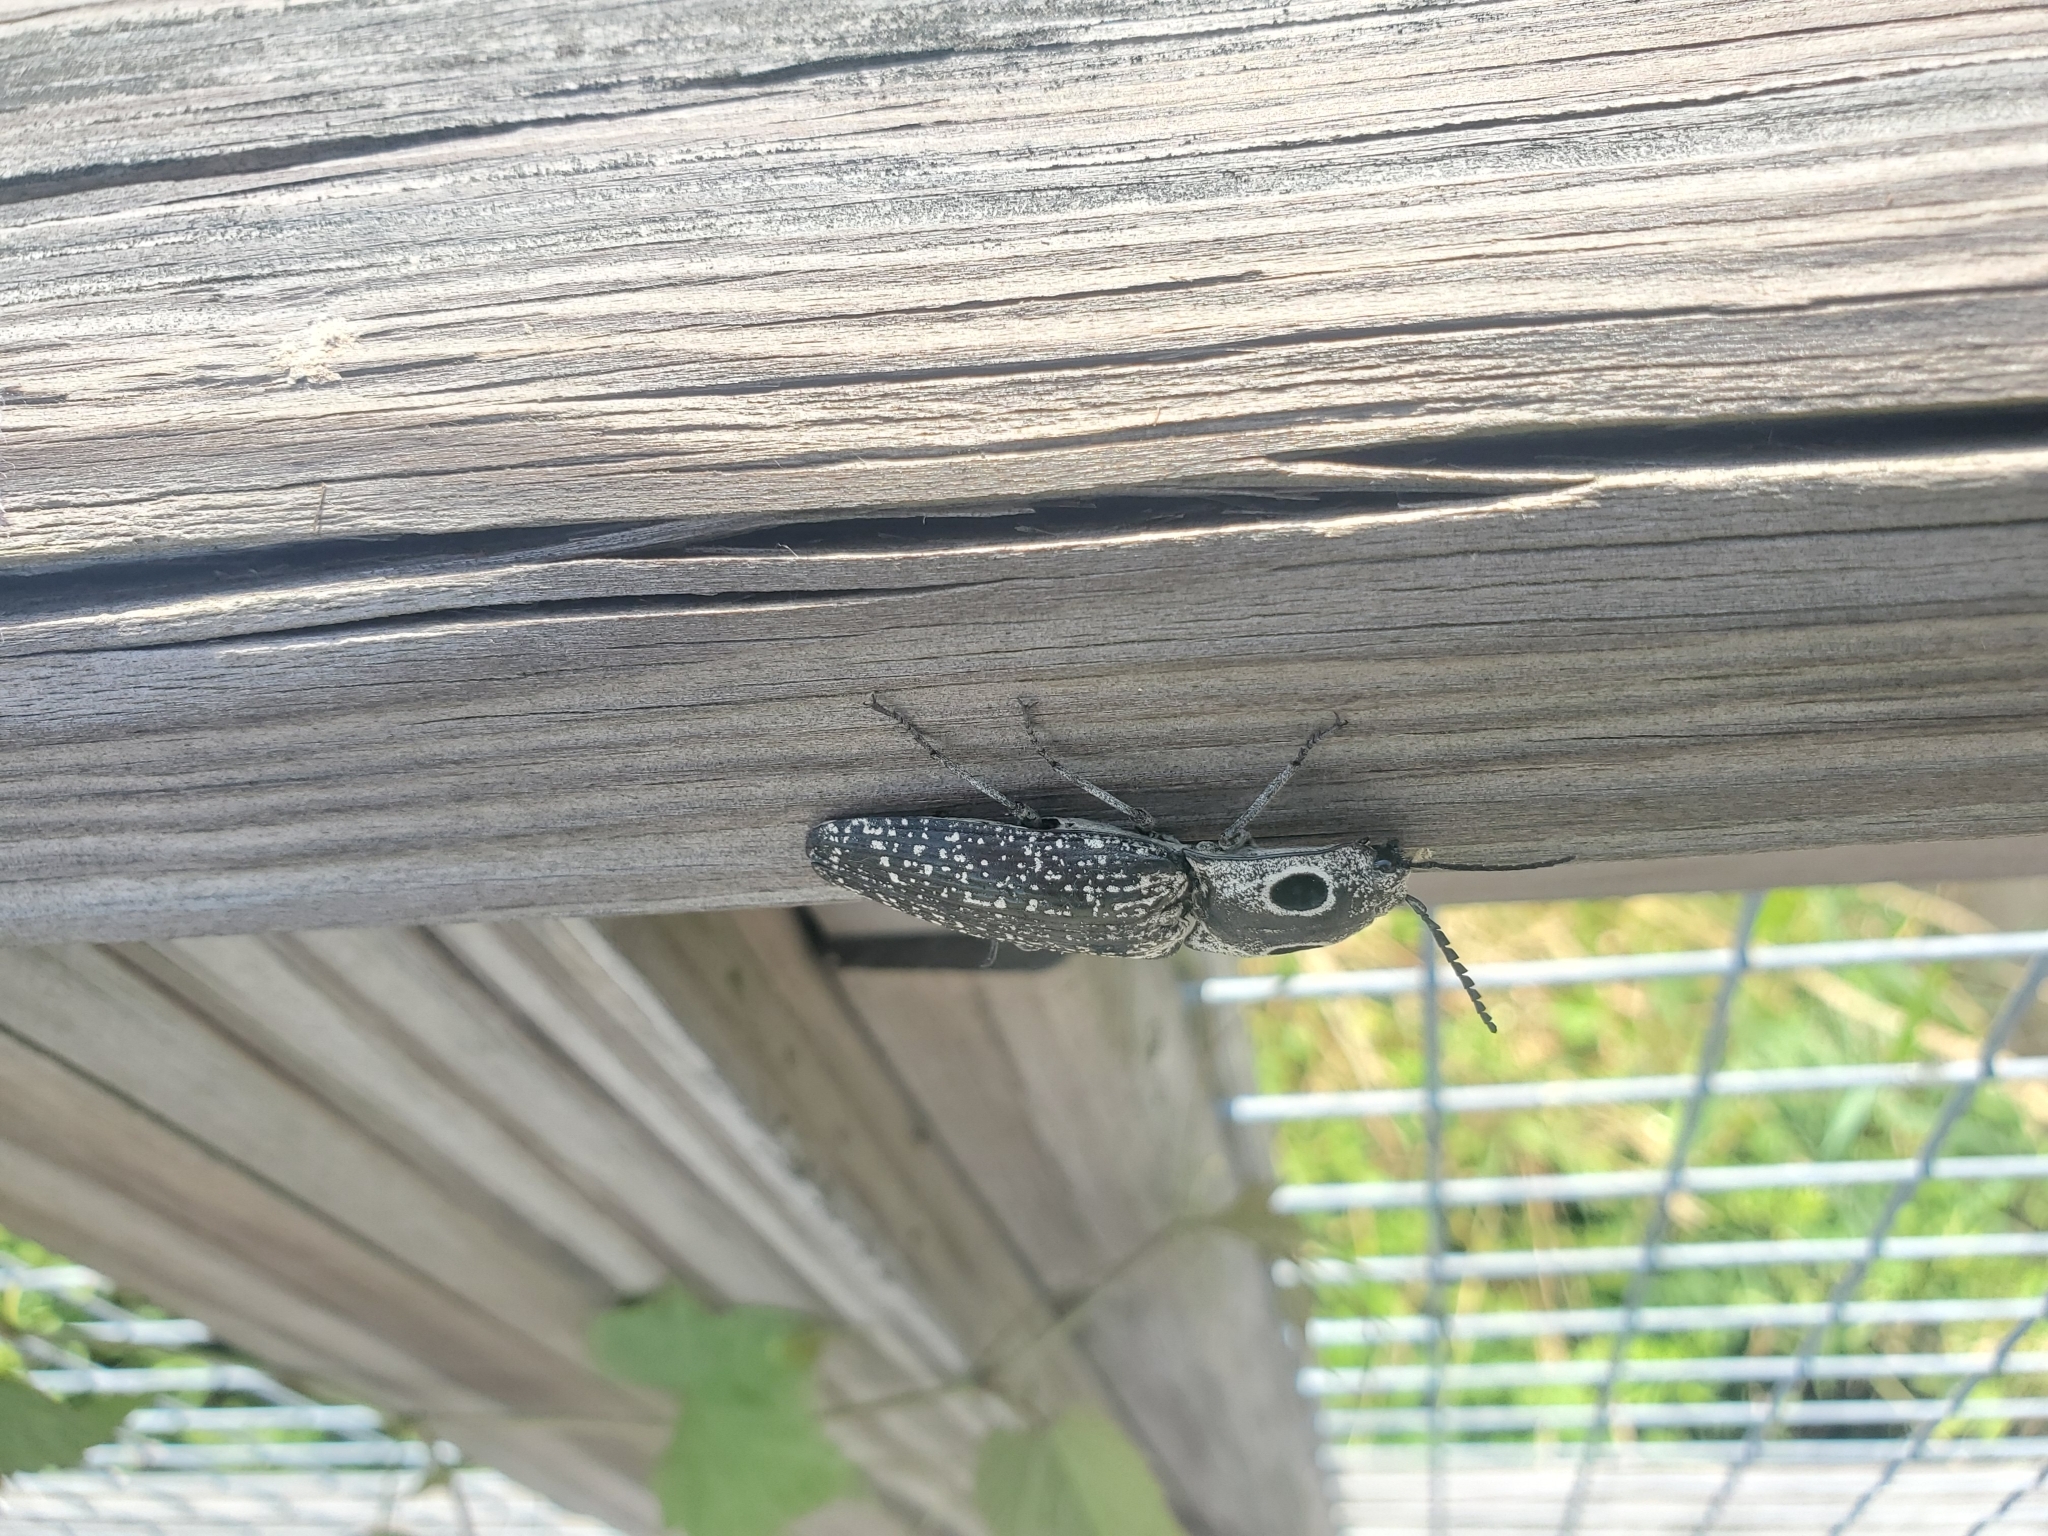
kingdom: Animalia
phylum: Arthropoda
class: Insecta
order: Coleoptera
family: Elateridae
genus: Alaus
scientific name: Alaus oculatus
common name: Eastern eyed click beetle
